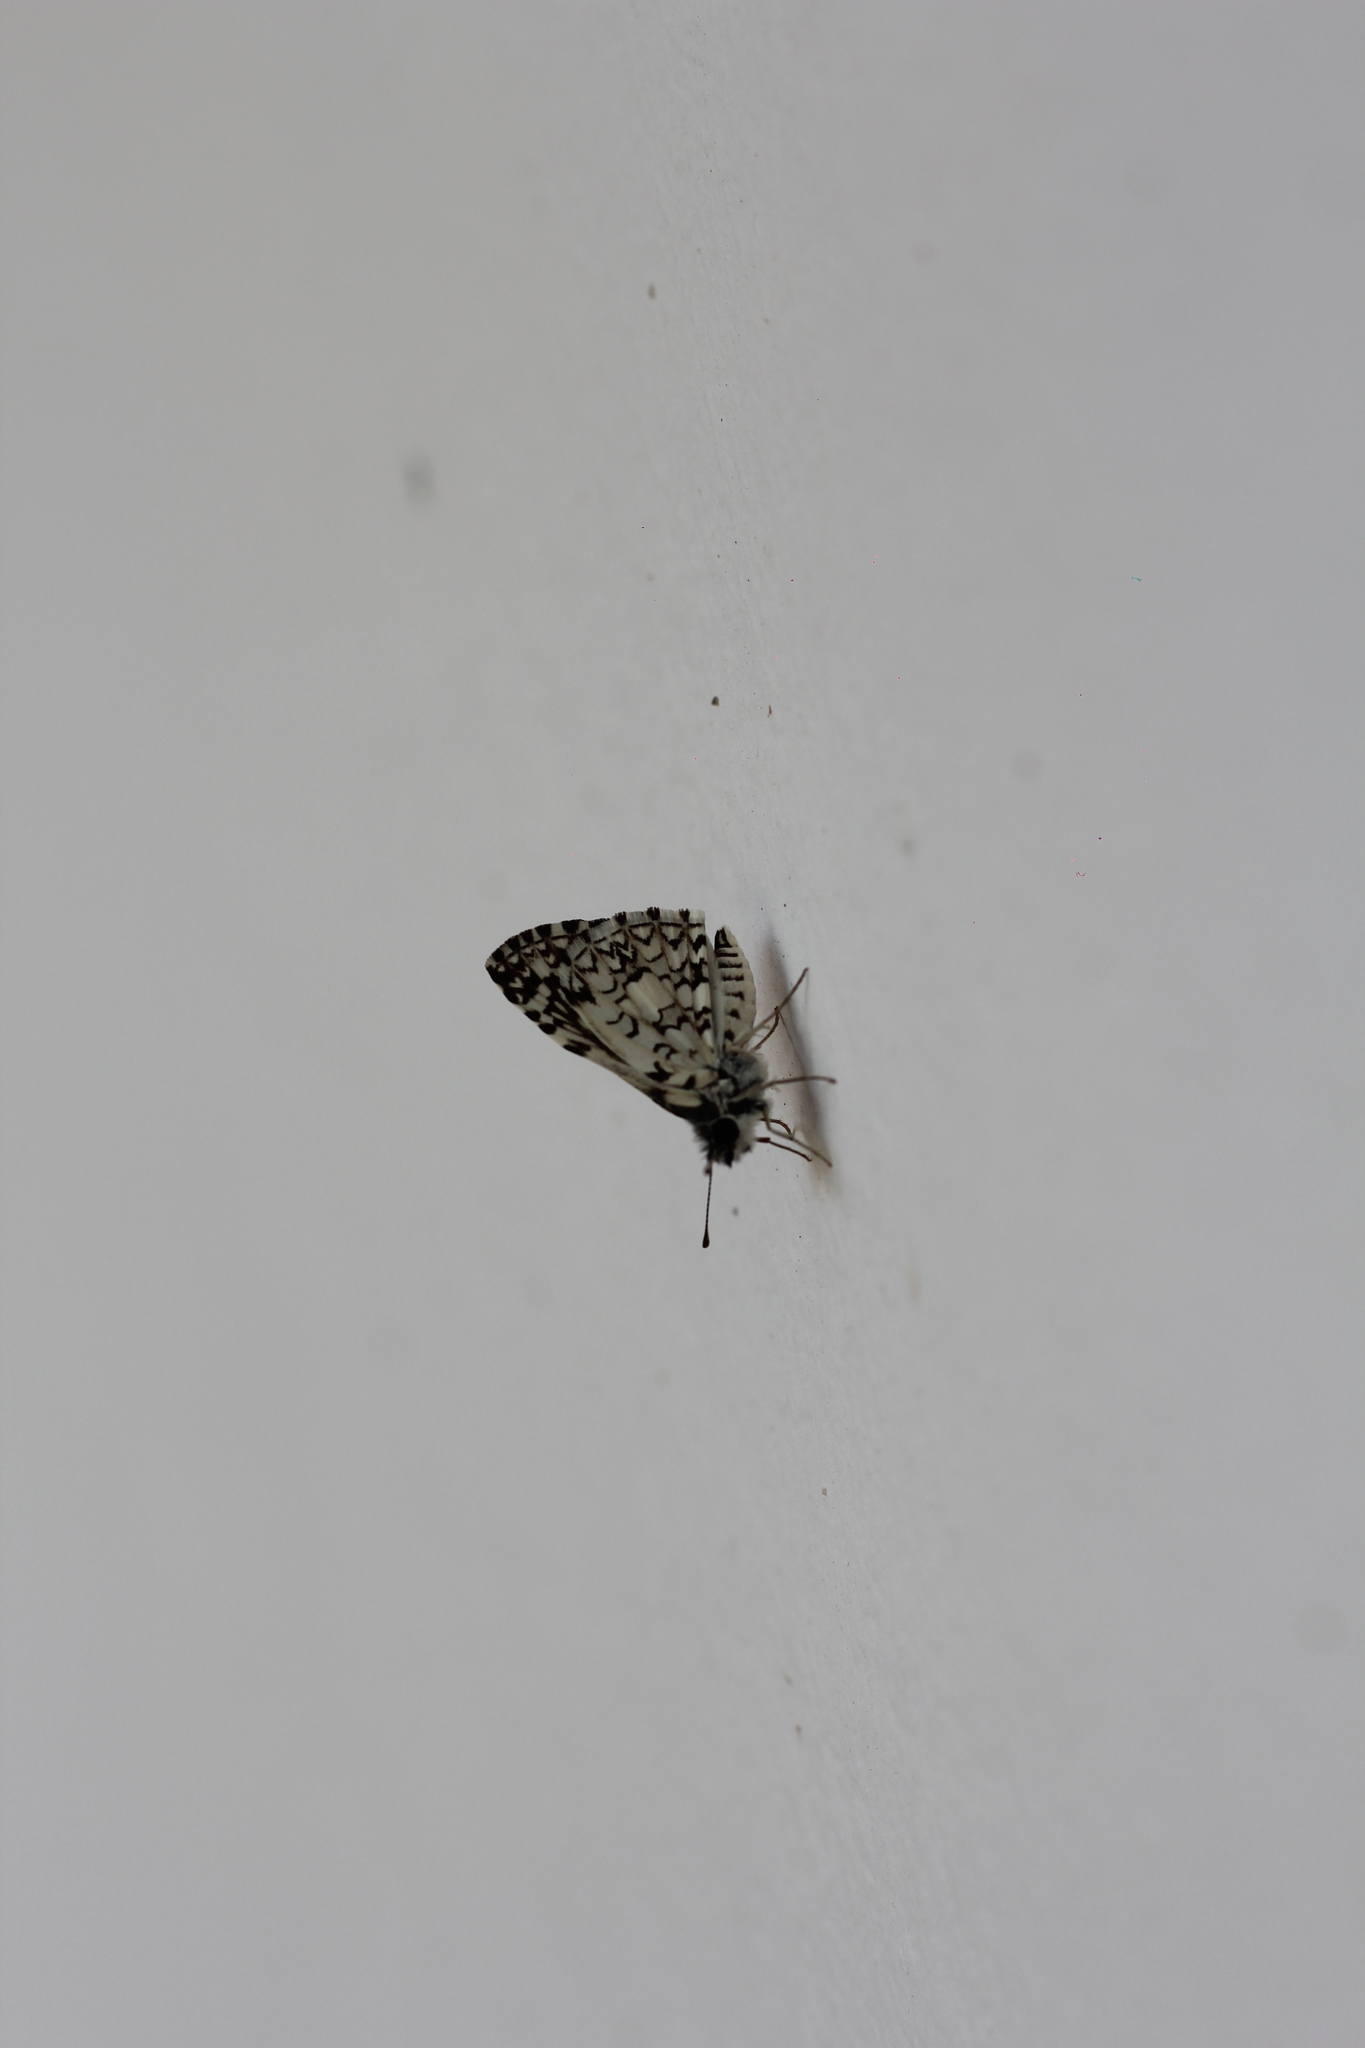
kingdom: Animalia
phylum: Arthropoda
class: Insecta
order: Lepidoptera
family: Hesperiidae
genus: Pyrgus
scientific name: Pyrgus oileus
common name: Tropical checkered-skipper
